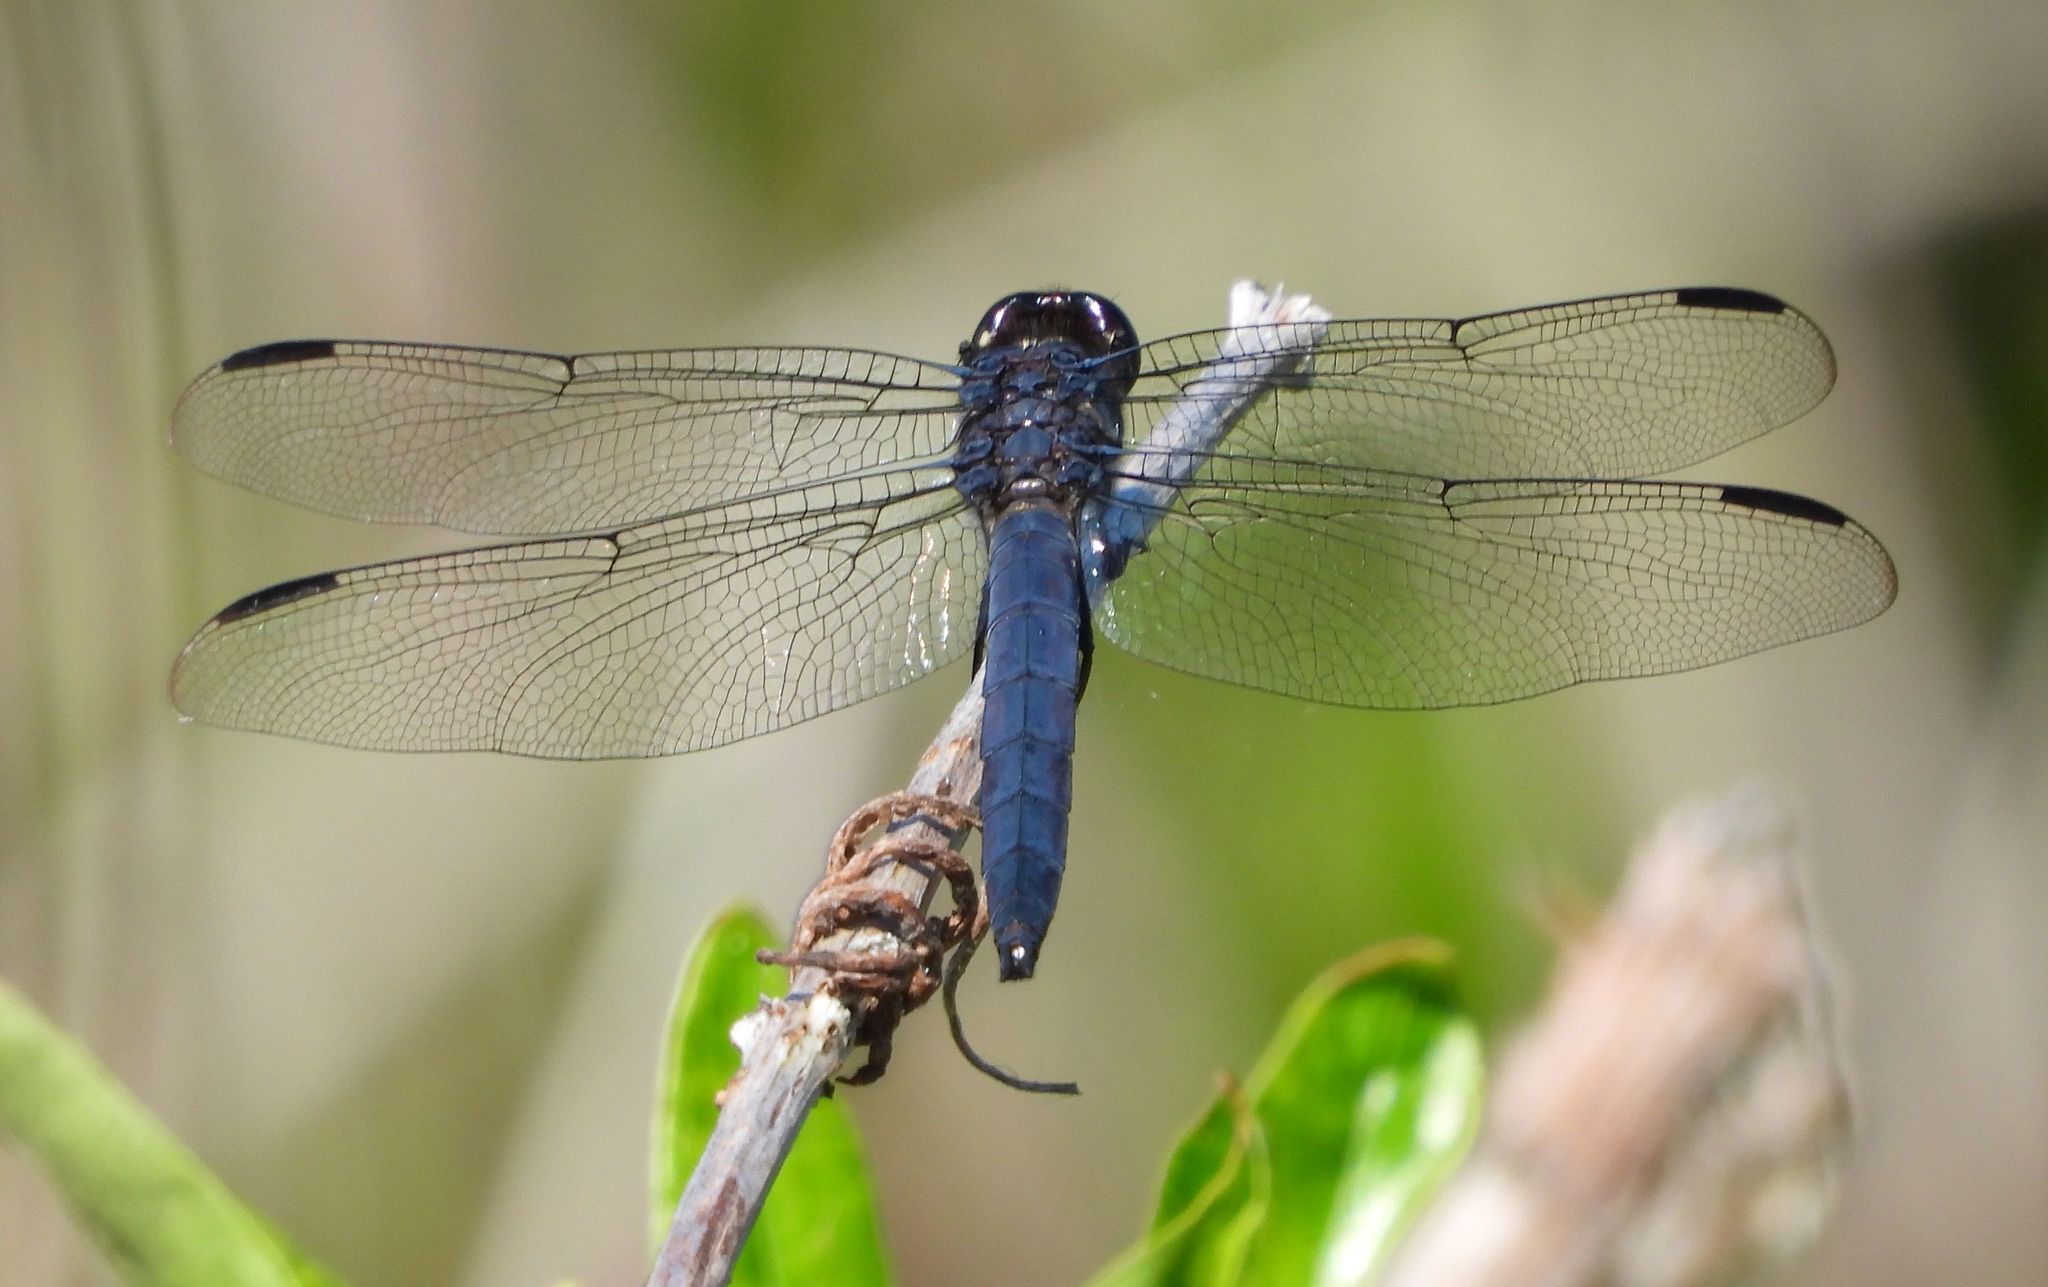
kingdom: Animalia
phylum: Arthropoda
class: Insecta
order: Odonata
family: Libellulidae
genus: Libellula
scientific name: Libellula incesta
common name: Slaty skimmer
